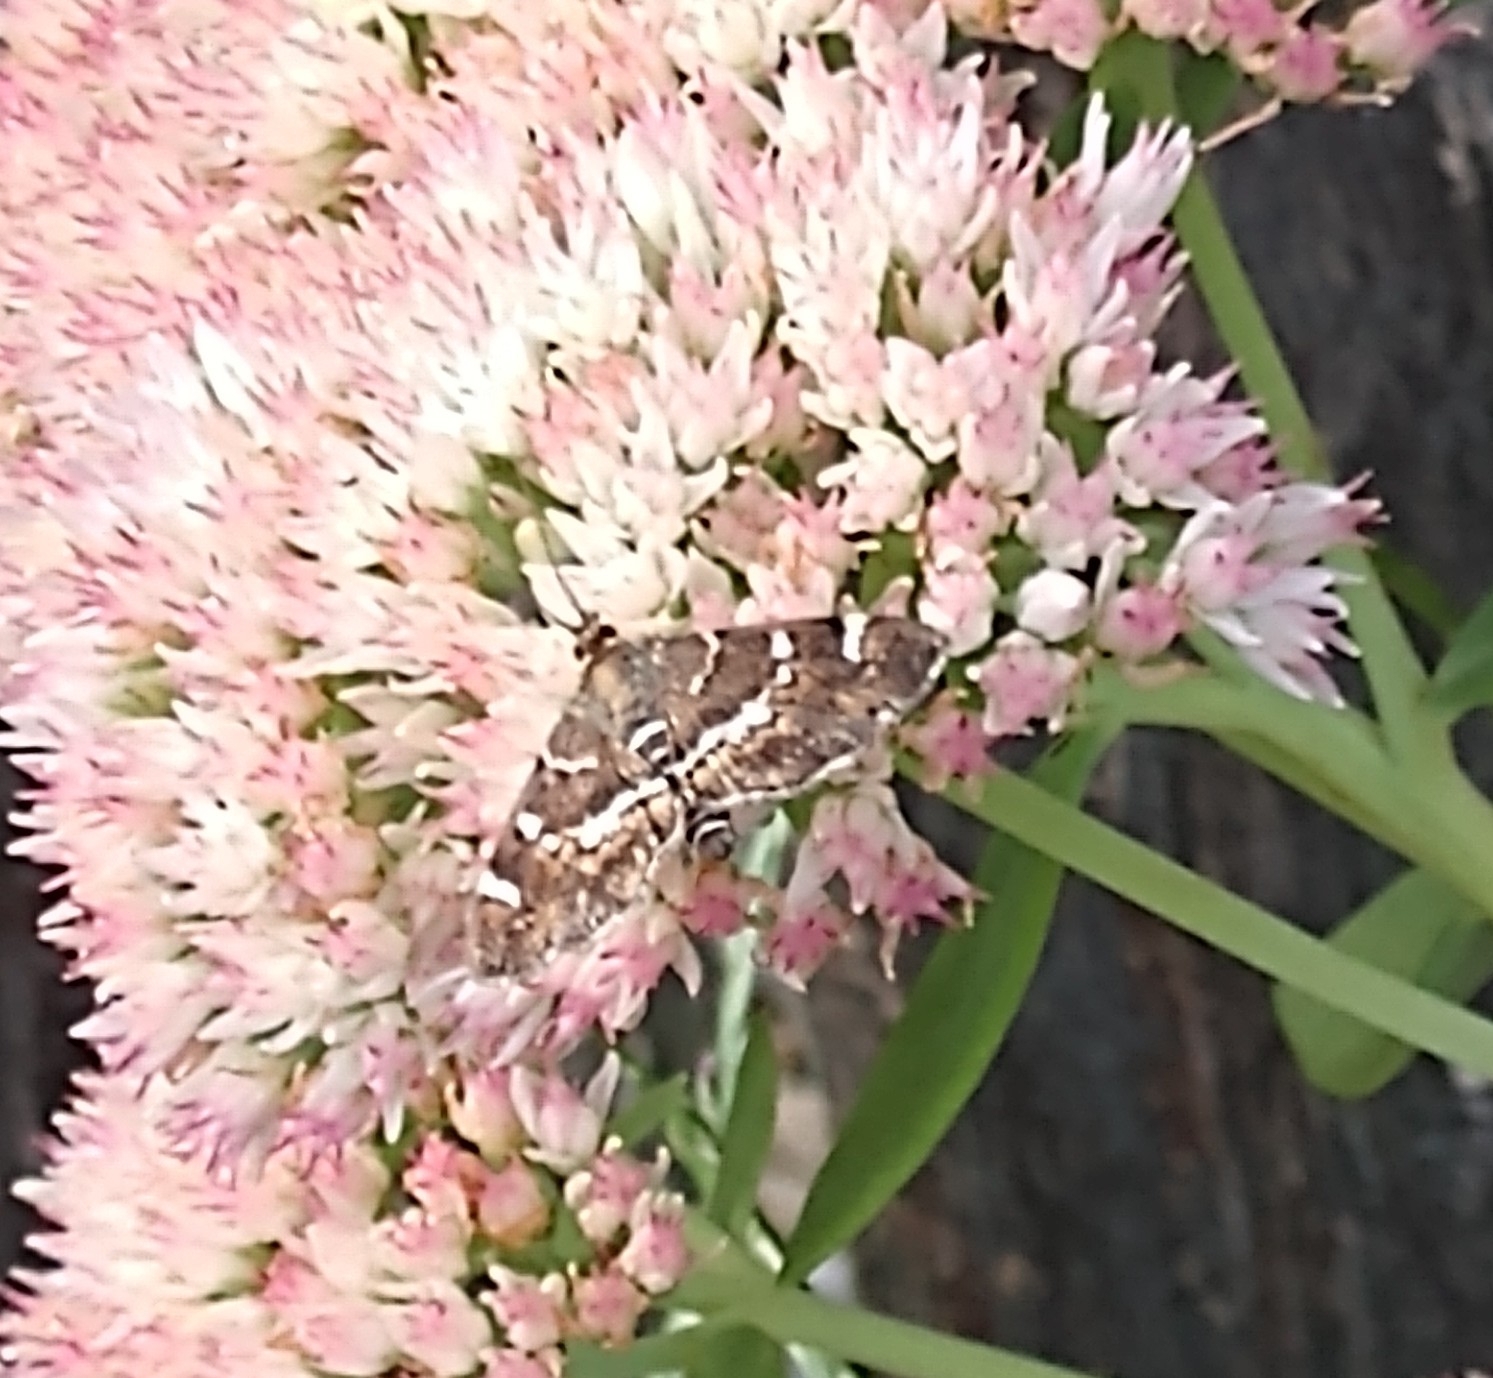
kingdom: Animalia
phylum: Arthropoda
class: Insecta
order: Lepidoptera
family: Crambidae
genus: Hymenia
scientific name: Hymenia perspectalis
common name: Spotted beet webworm
